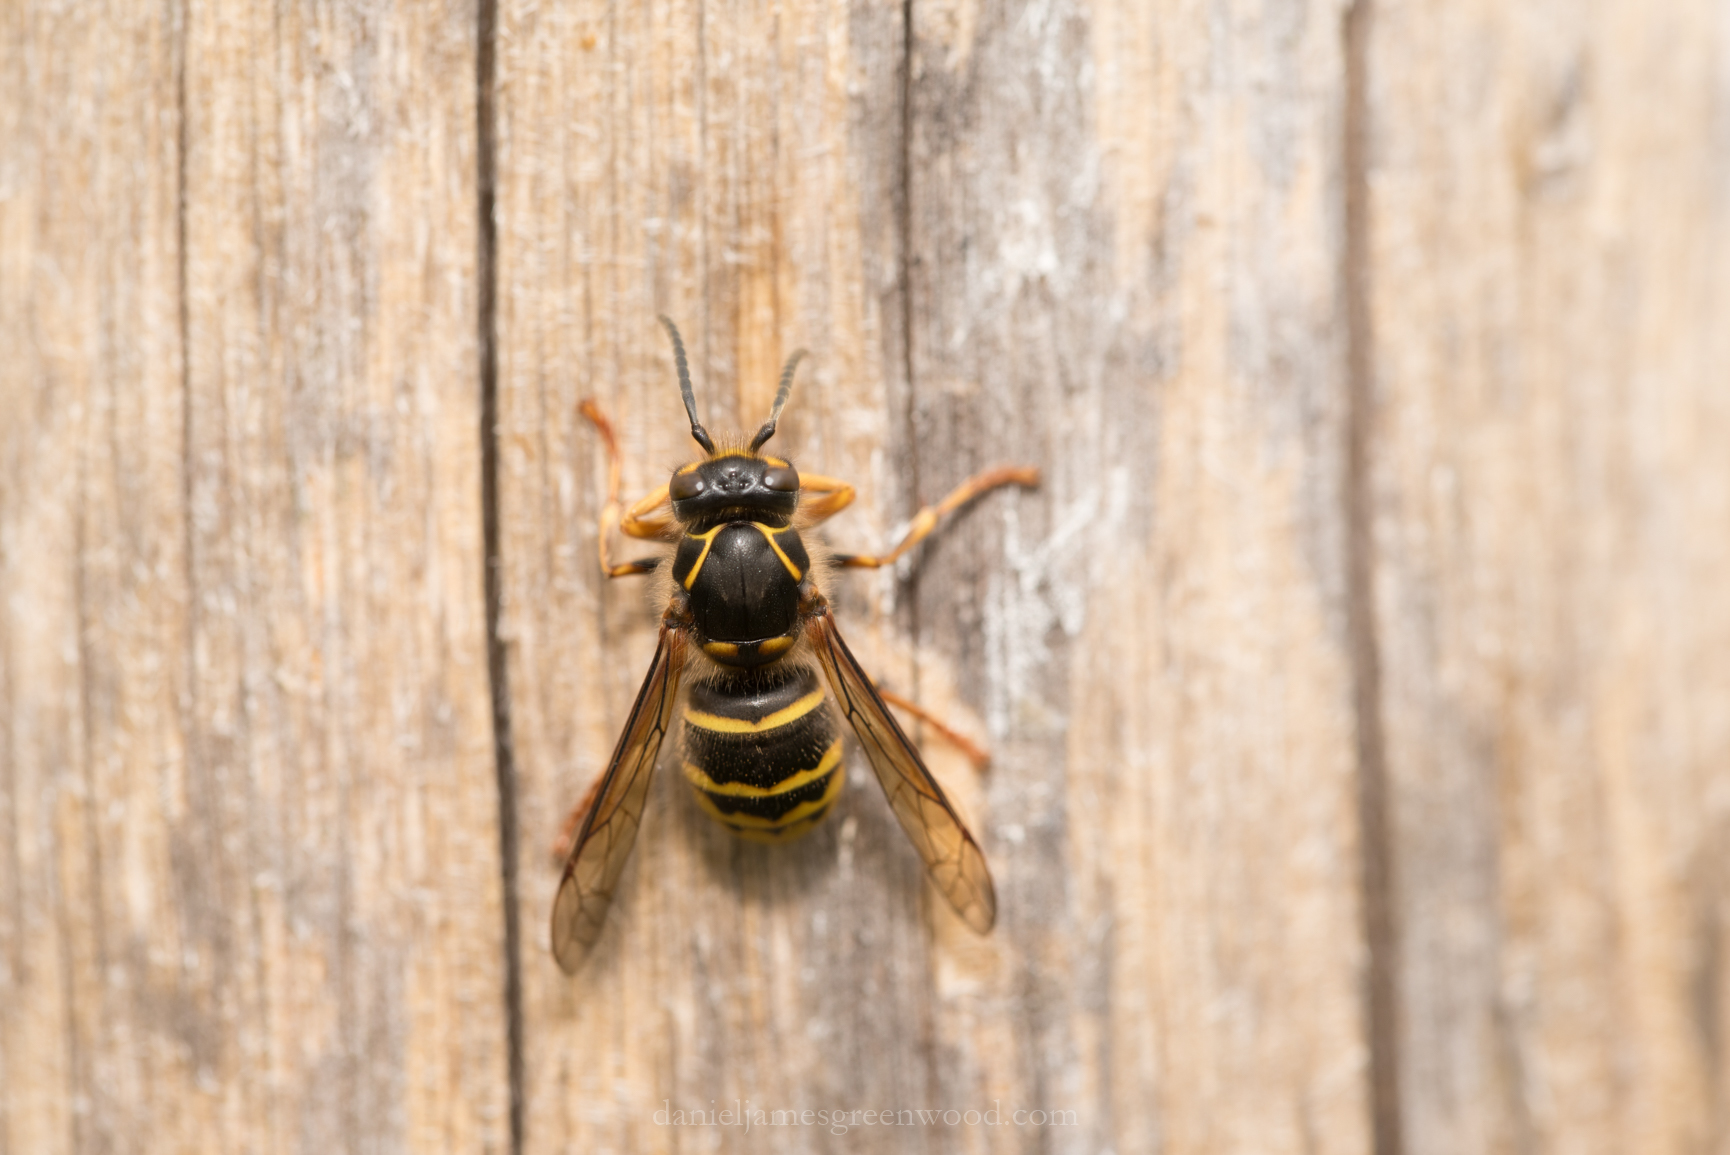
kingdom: Animalia
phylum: Arthropoda
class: Insecta
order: Hymenoptera
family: Vespidae
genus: Dolichovespula
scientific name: Dolichovespula media
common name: Median wasp
